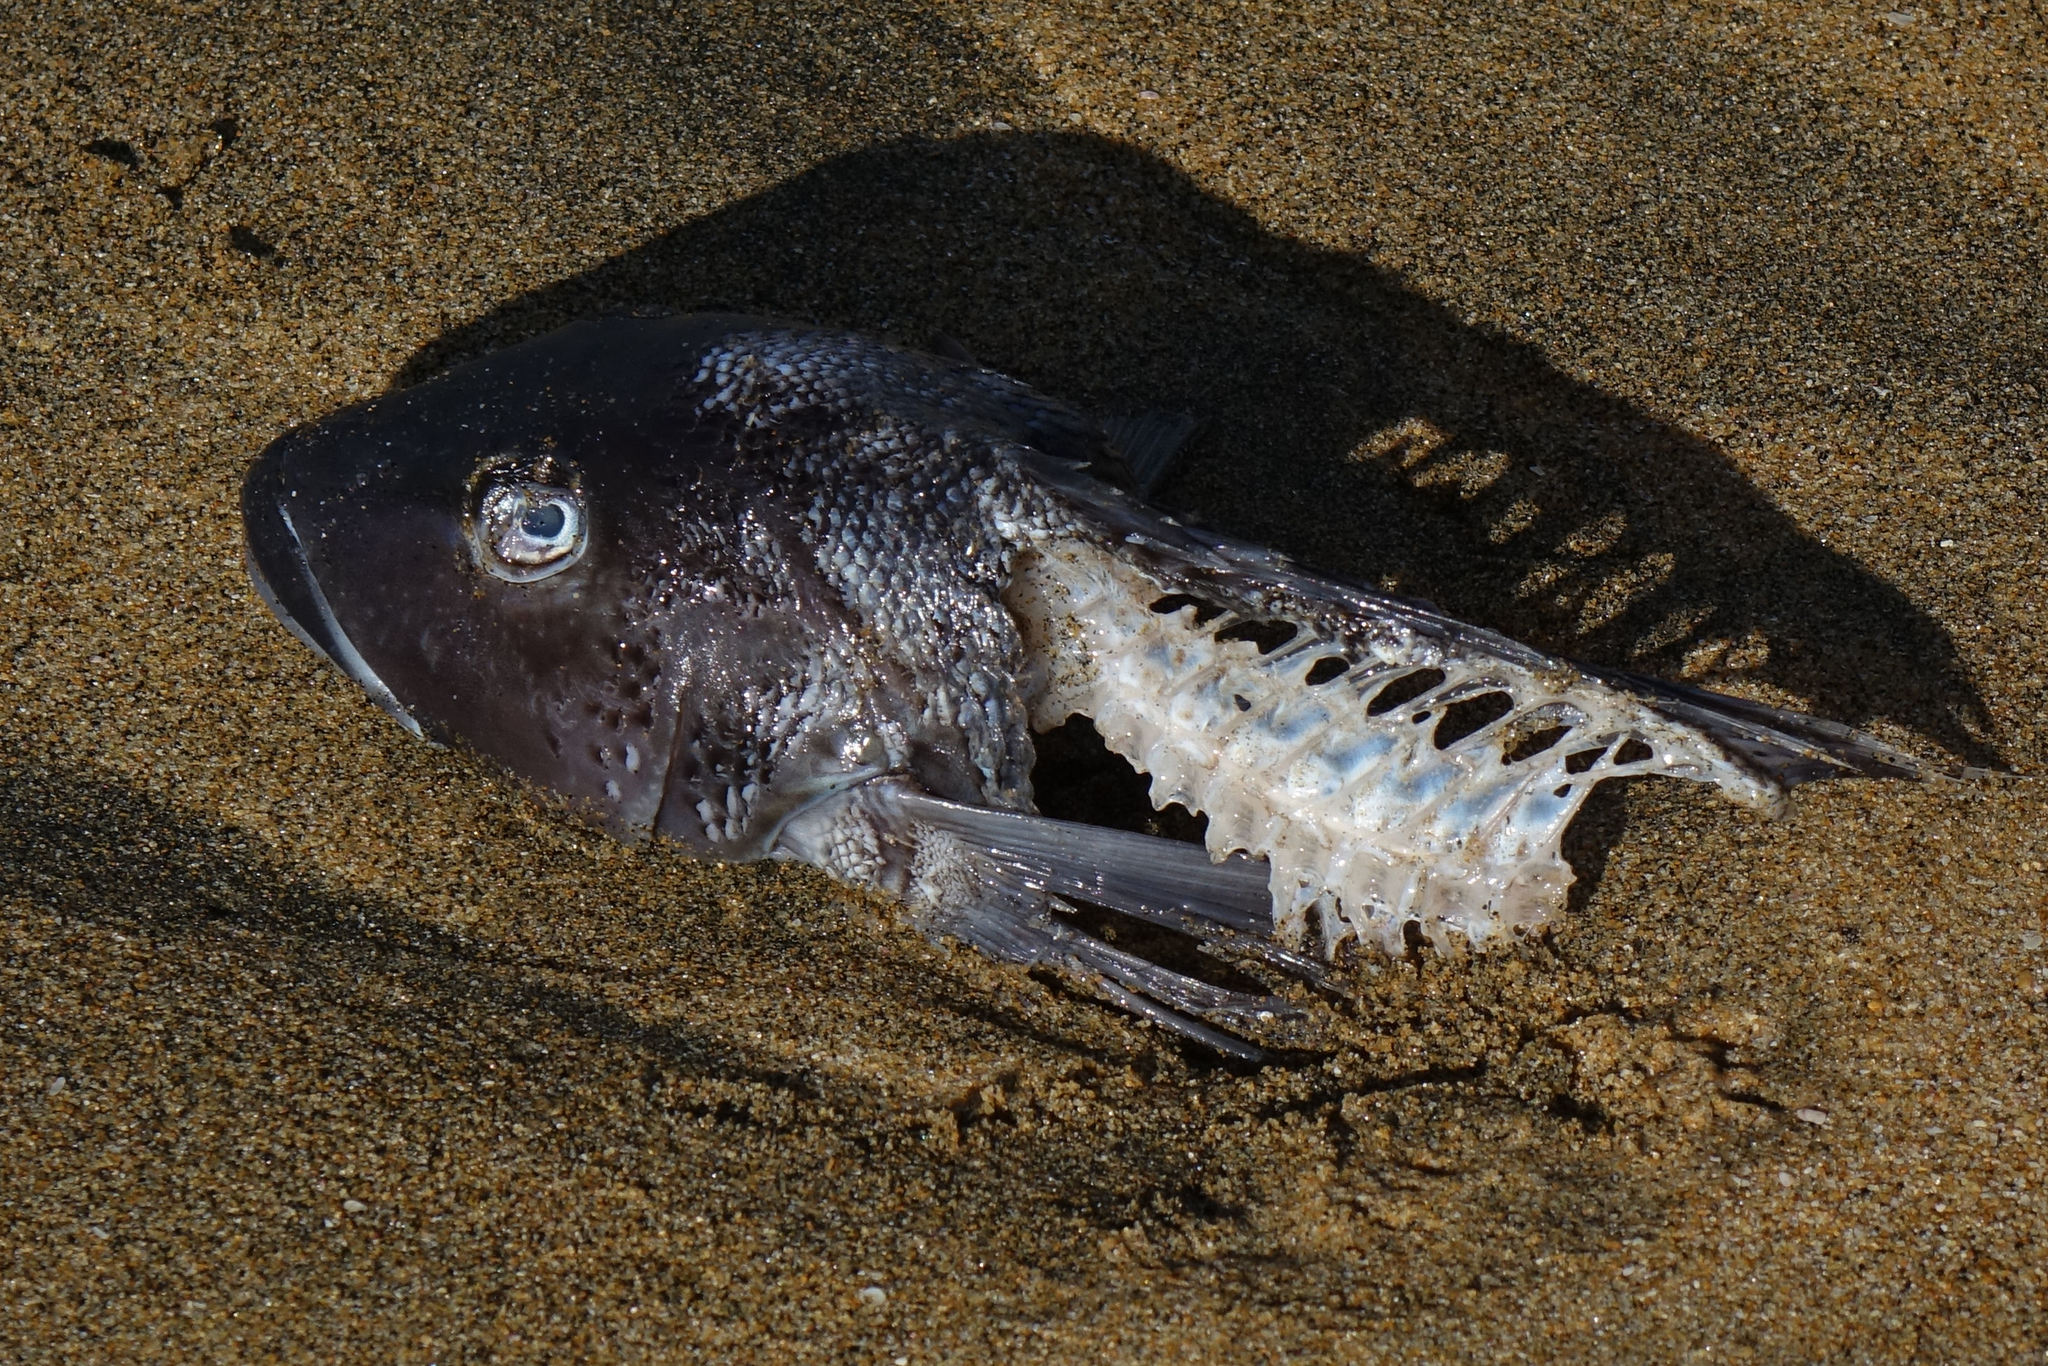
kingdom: Animalia
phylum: Chordata
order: Perciformes
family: Pinguipedidae
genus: Parapercis
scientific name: Parapercis colias
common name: Blue cod
